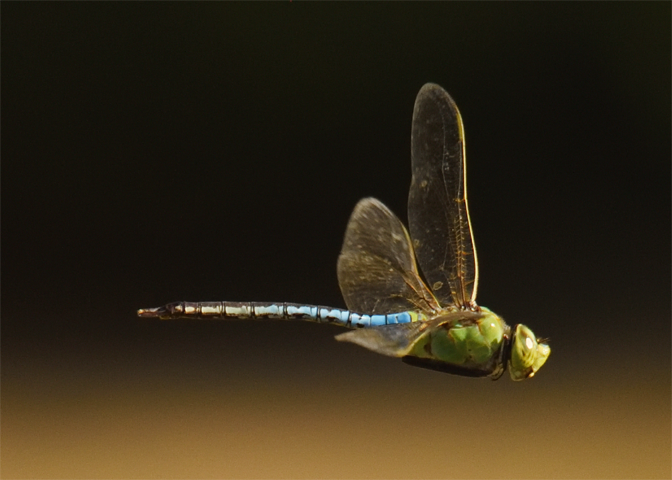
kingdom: Animalia
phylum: Arthropoda
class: Insecta
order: Odonata
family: Aeshnidae
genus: Anax
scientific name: Anax junius
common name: Common green darner
